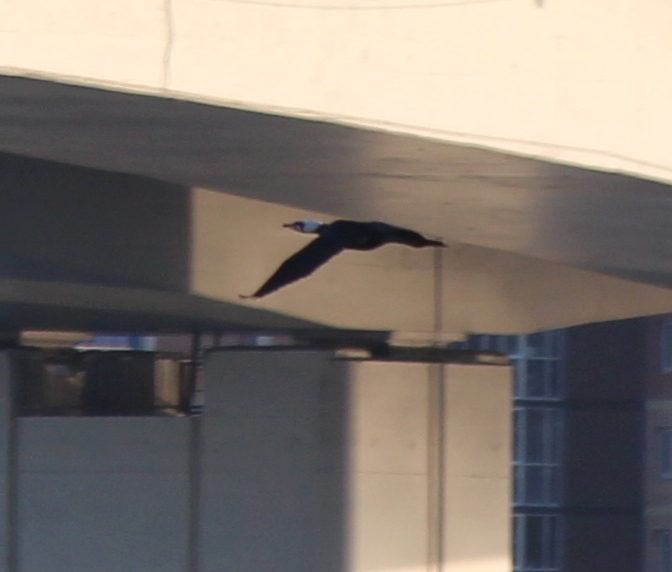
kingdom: Animalia
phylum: Chordata
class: Aves
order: Suliformes
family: Phalacrocoracidae
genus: Phalacrocorax
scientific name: Phalacrocorax carbo
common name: Great cormorant
